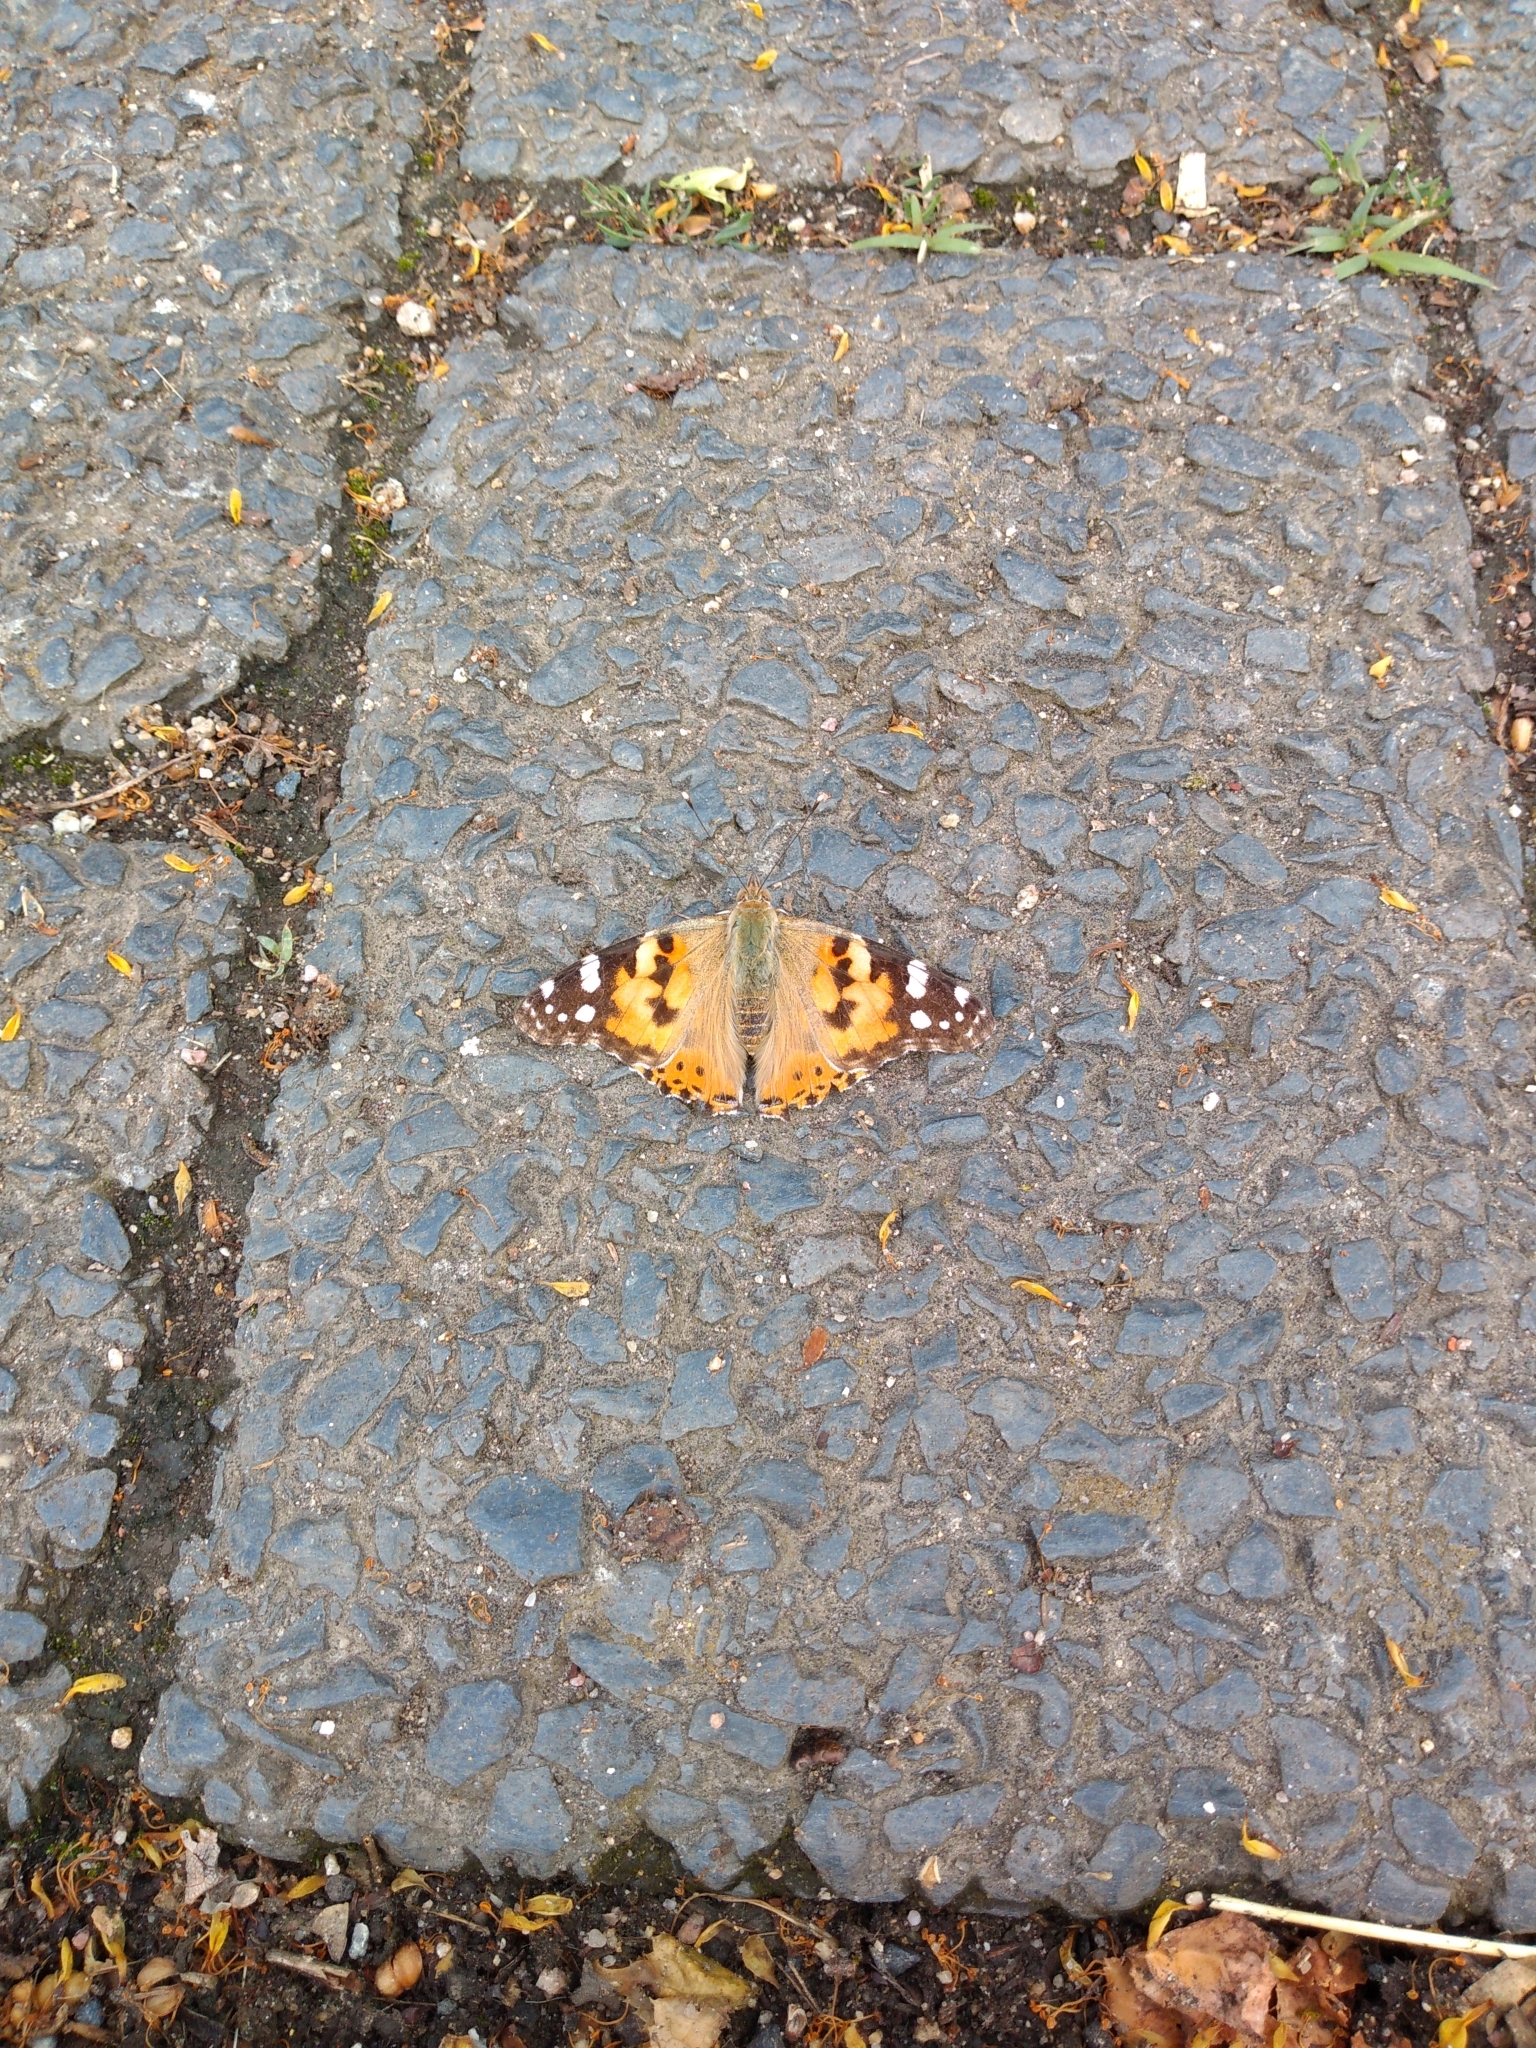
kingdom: Animalia
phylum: Arthropoda
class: Insecta
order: Lepidoptera
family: Nymphalidae
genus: Vanessa
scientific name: Vanessa cardui
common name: Painted lady
